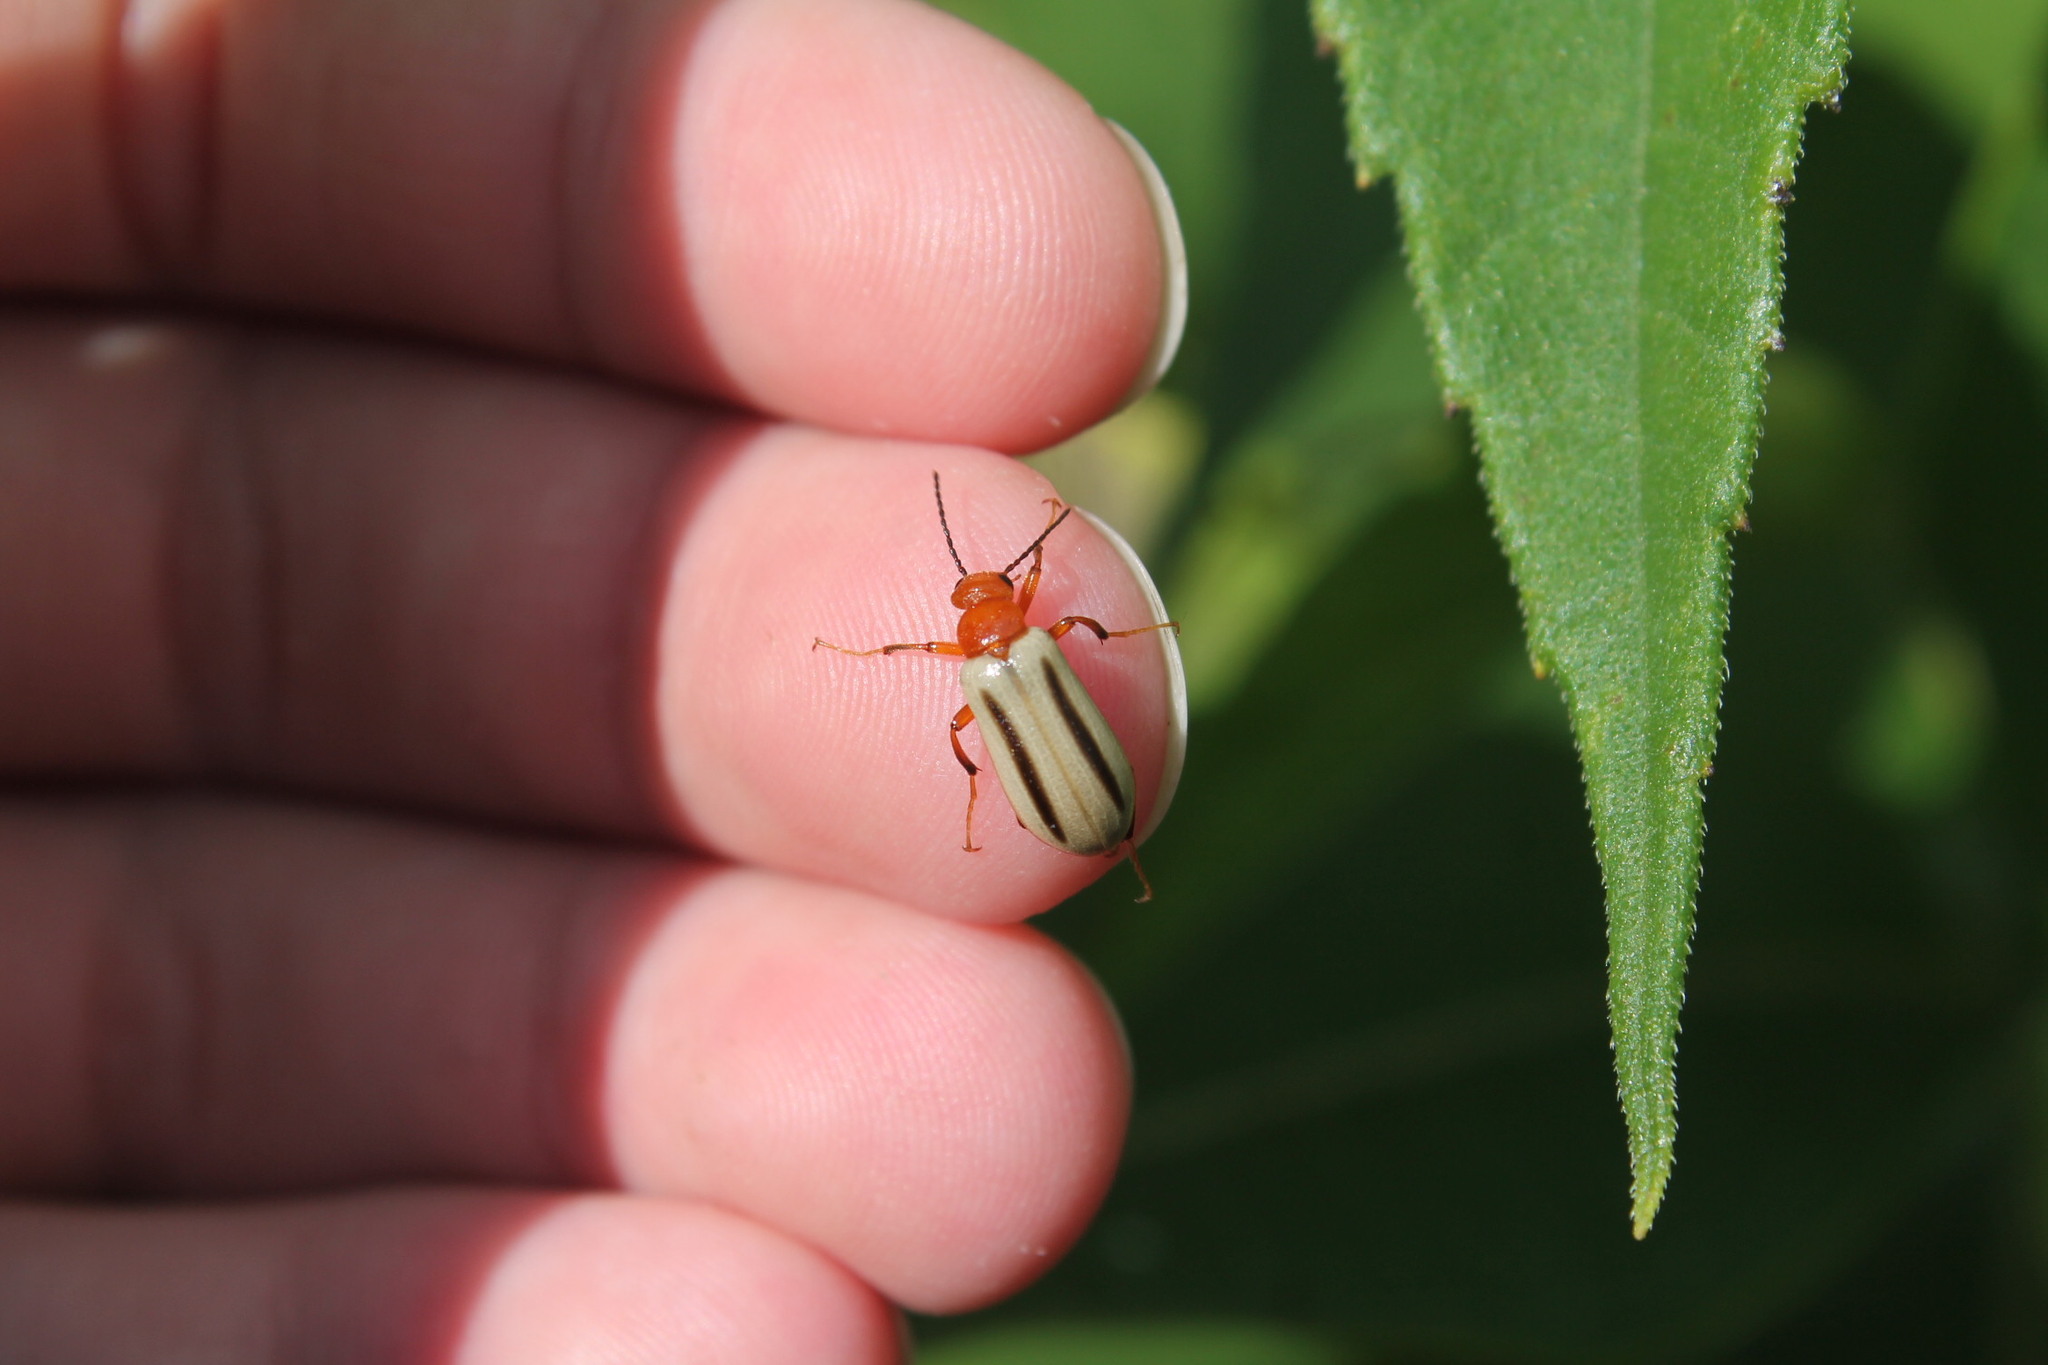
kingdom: Animalia
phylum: Arthropoda
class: Insecta
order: Coleoptera
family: Meloidae
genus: Zonitis
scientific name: Zonitis bilineata
